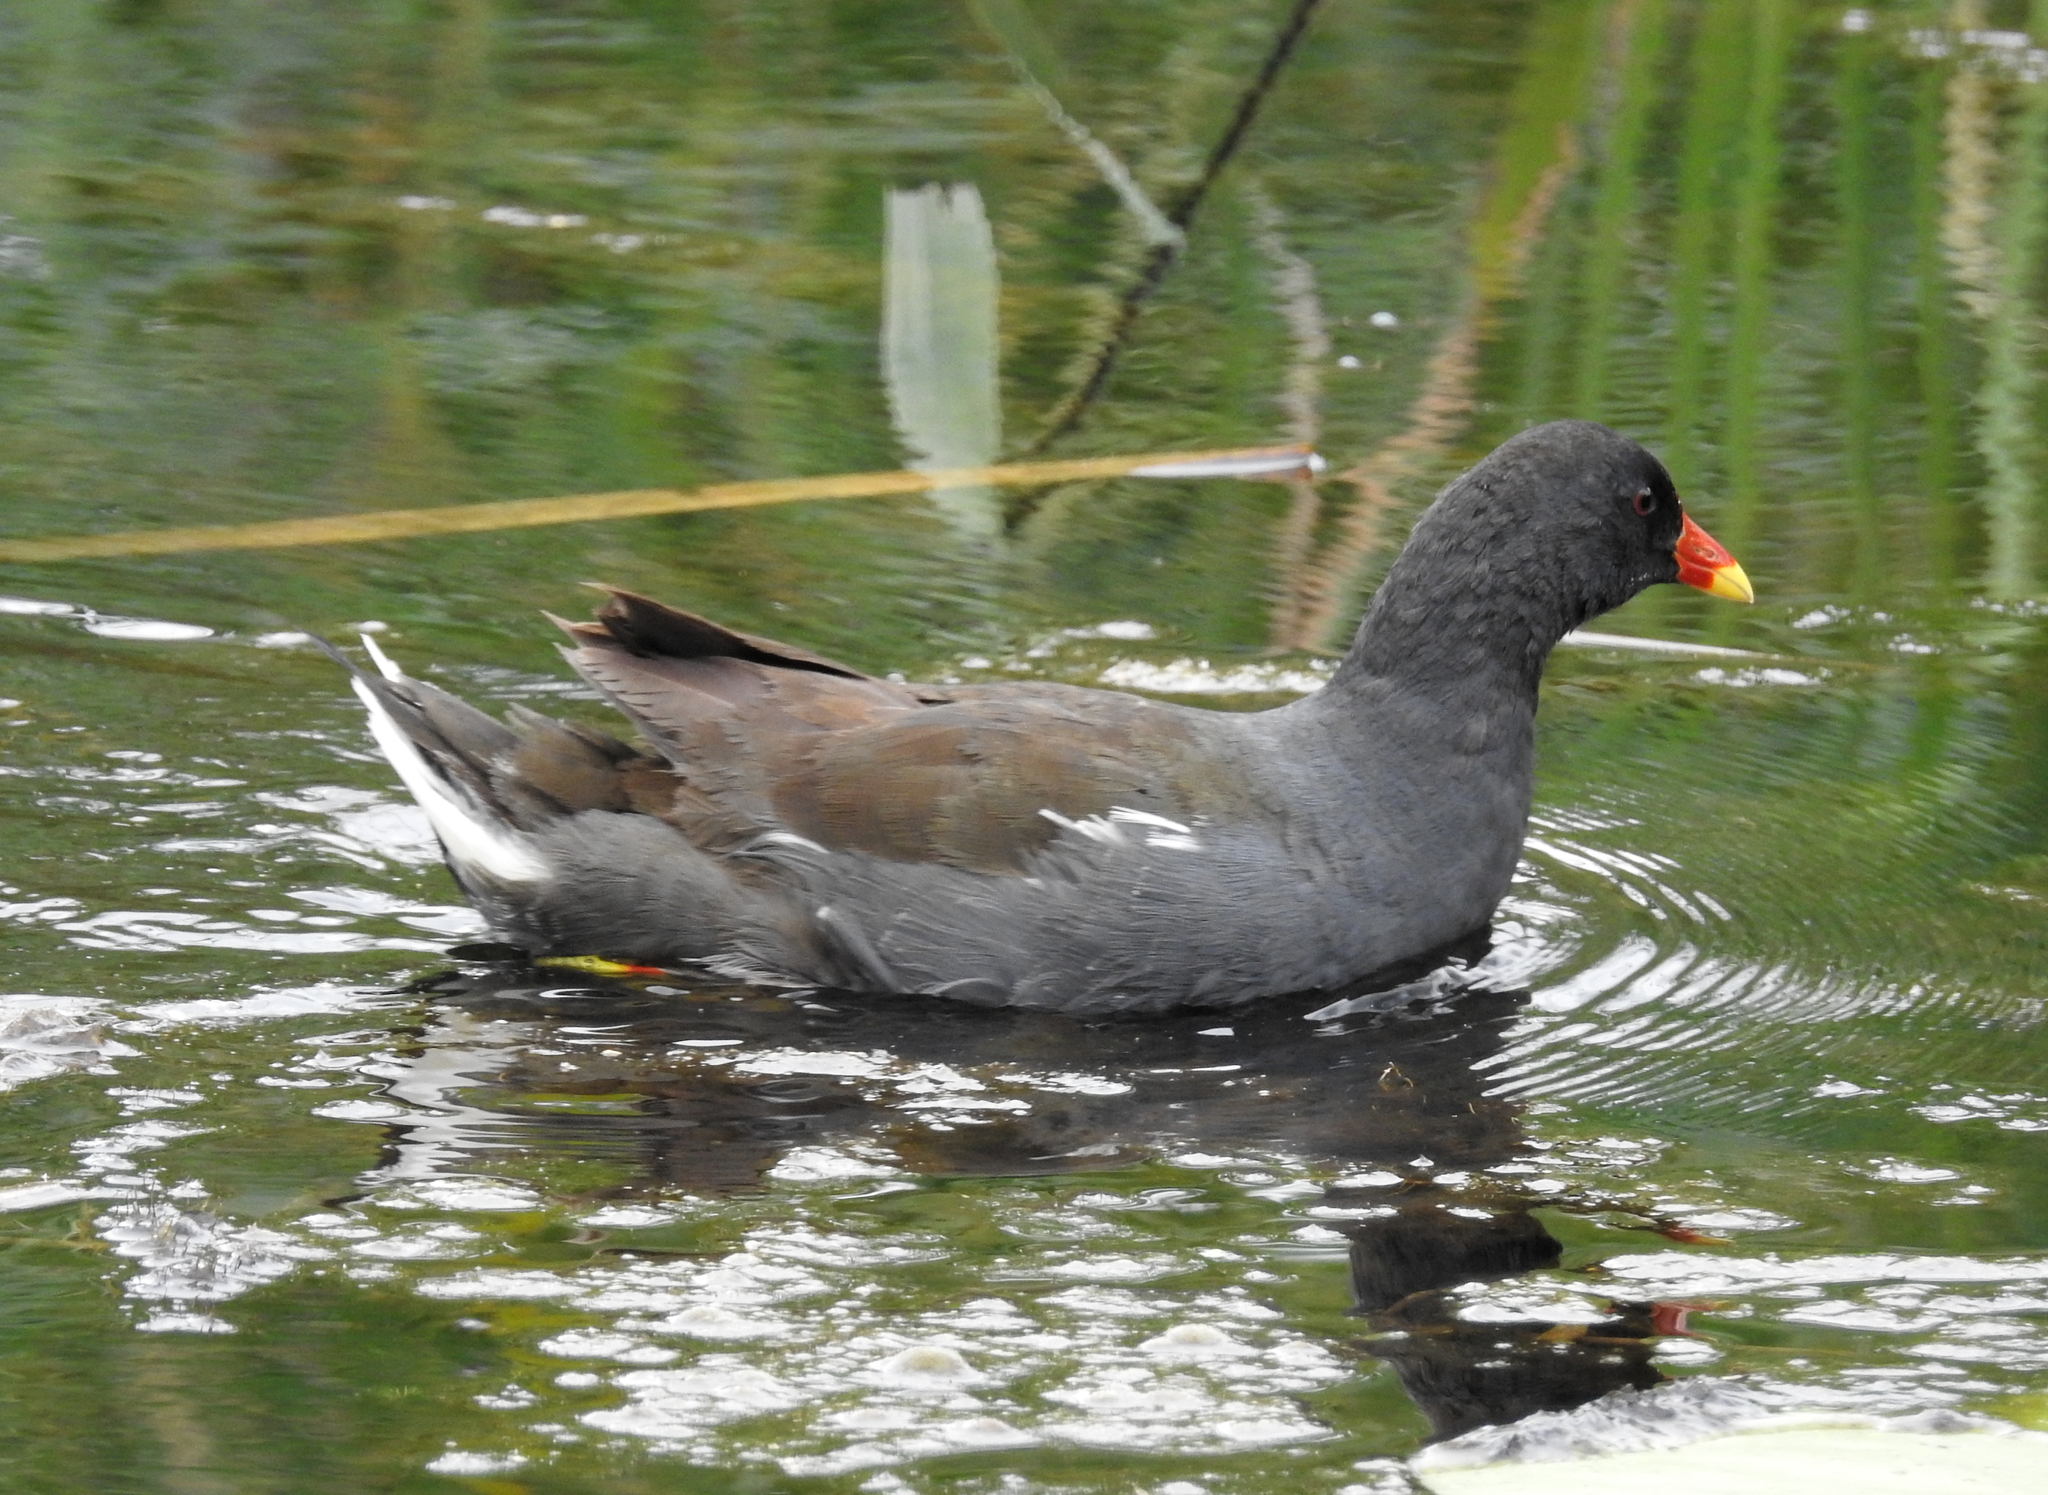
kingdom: Animalia
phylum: Chordata
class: Aves
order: Gruiformes
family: Rallidae
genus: Gallinula
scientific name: Gallinula chloropus
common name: Common moorhen
